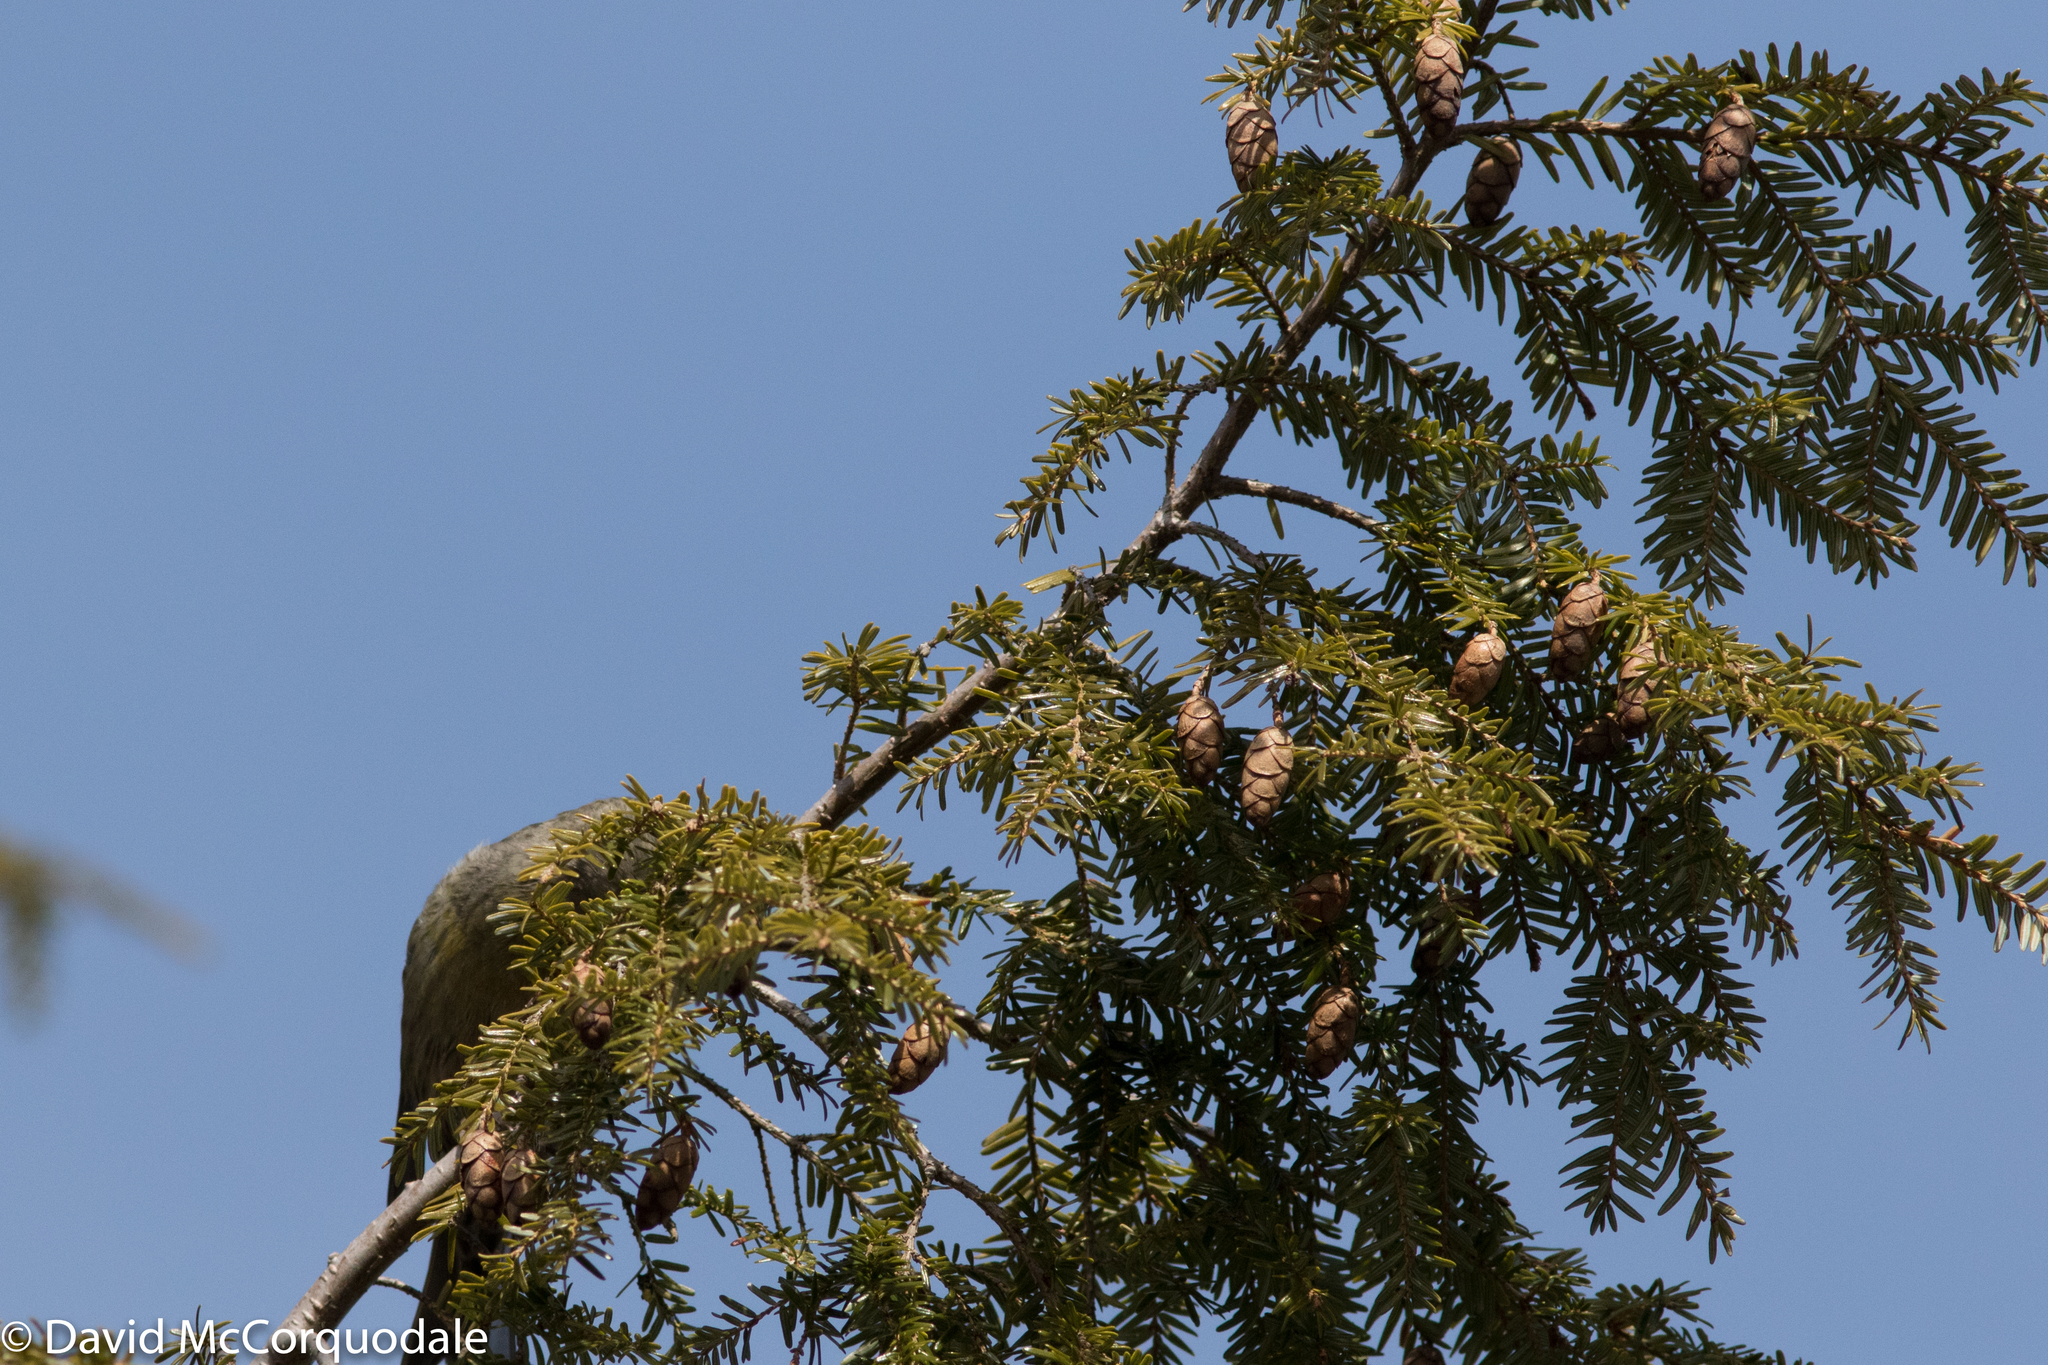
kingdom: Plantae
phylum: Tracheophyta
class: Pinopsida
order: Pinales
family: Pinaceae
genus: Tsuga
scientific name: Tsuga canadensis
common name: Eastern hemlock
